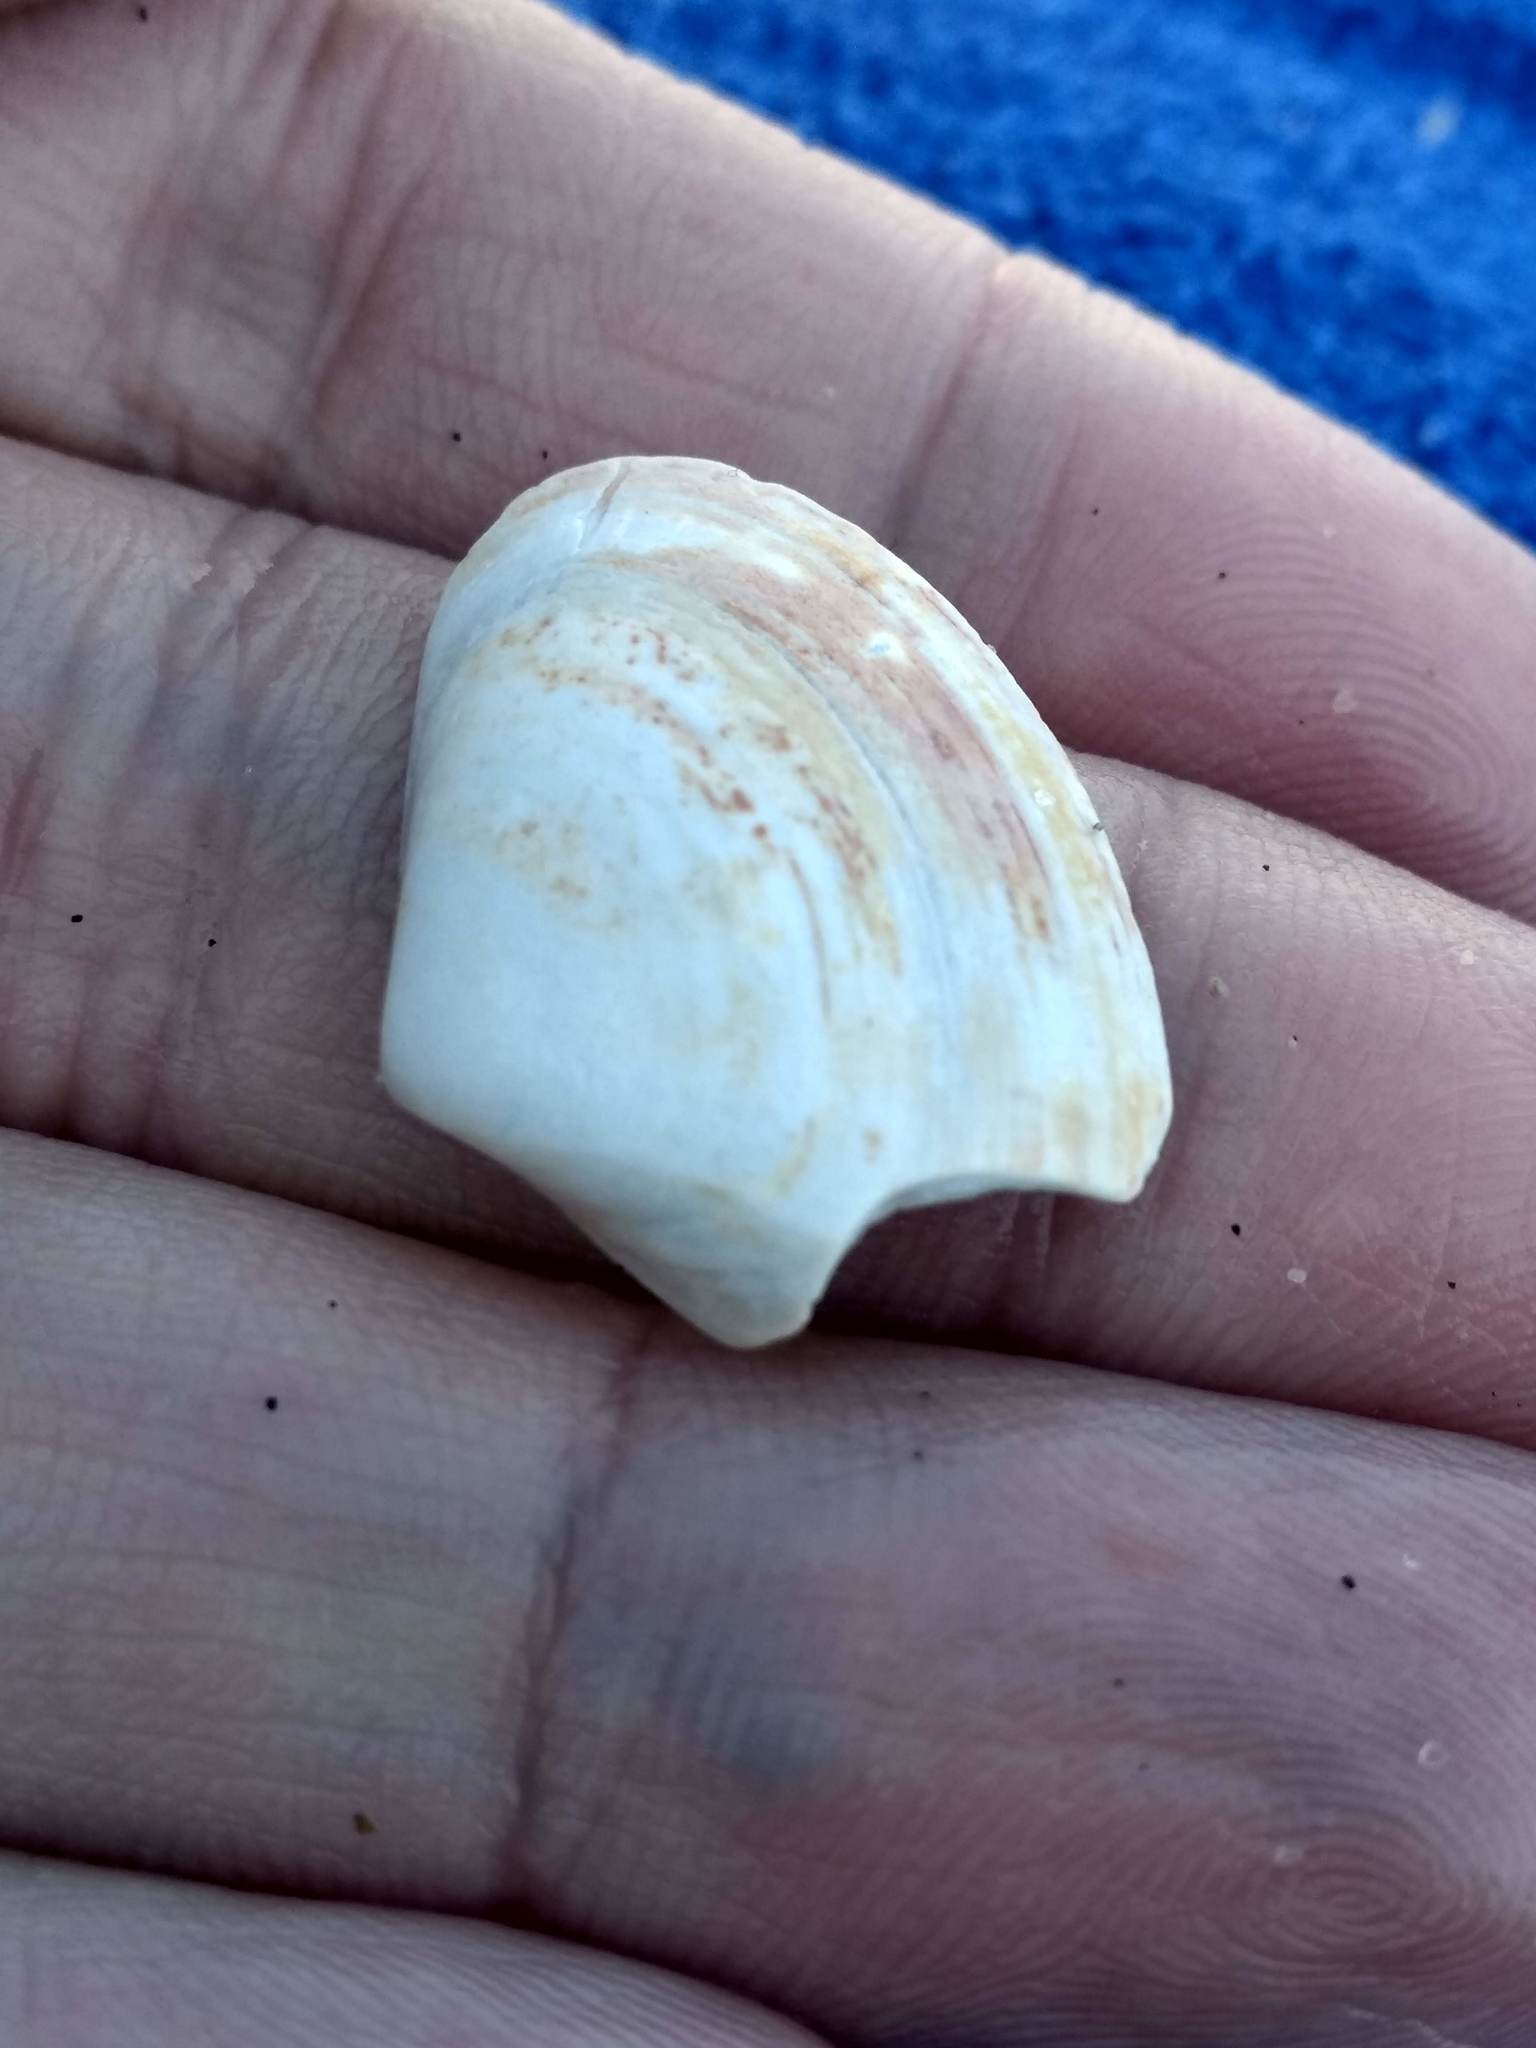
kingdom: Animalia
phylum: Mollusca
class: Bivalvia
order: Venerida
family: Veneridae
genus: Tivela
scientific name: Tivela stultorum
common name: Pismo clam
